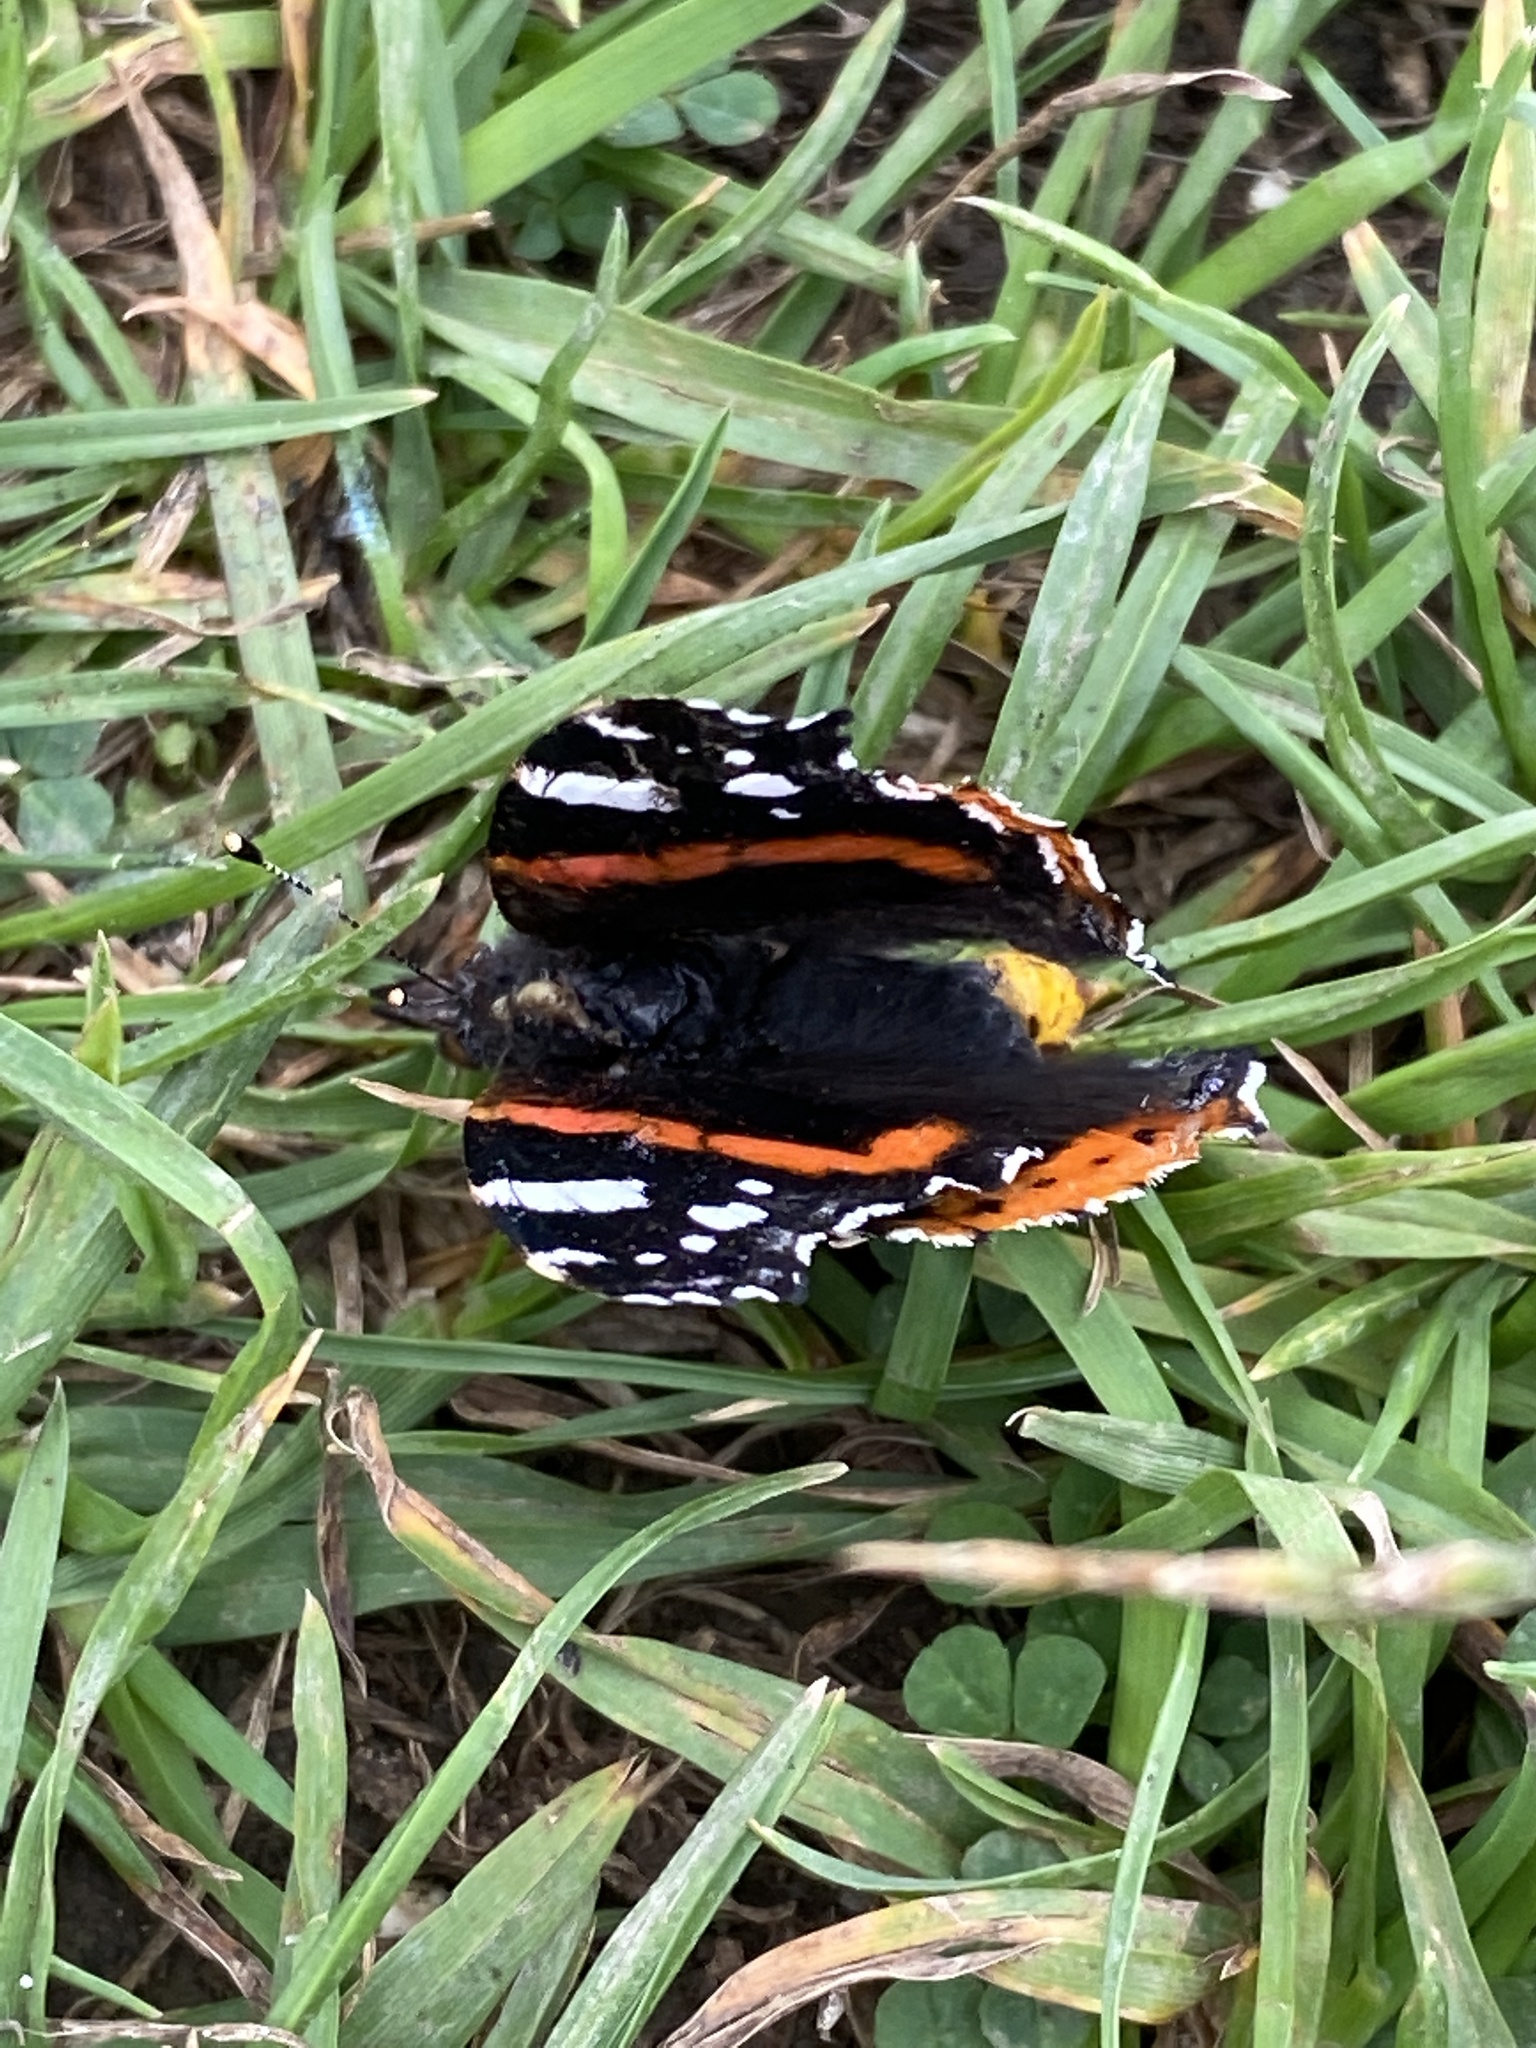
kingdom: Animalia
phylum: Arthropoda
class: Insecta
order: Lepidoptera
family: Nymphalidae
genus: Vanessa
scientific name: Vanessa atalanta
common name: Red admiral
